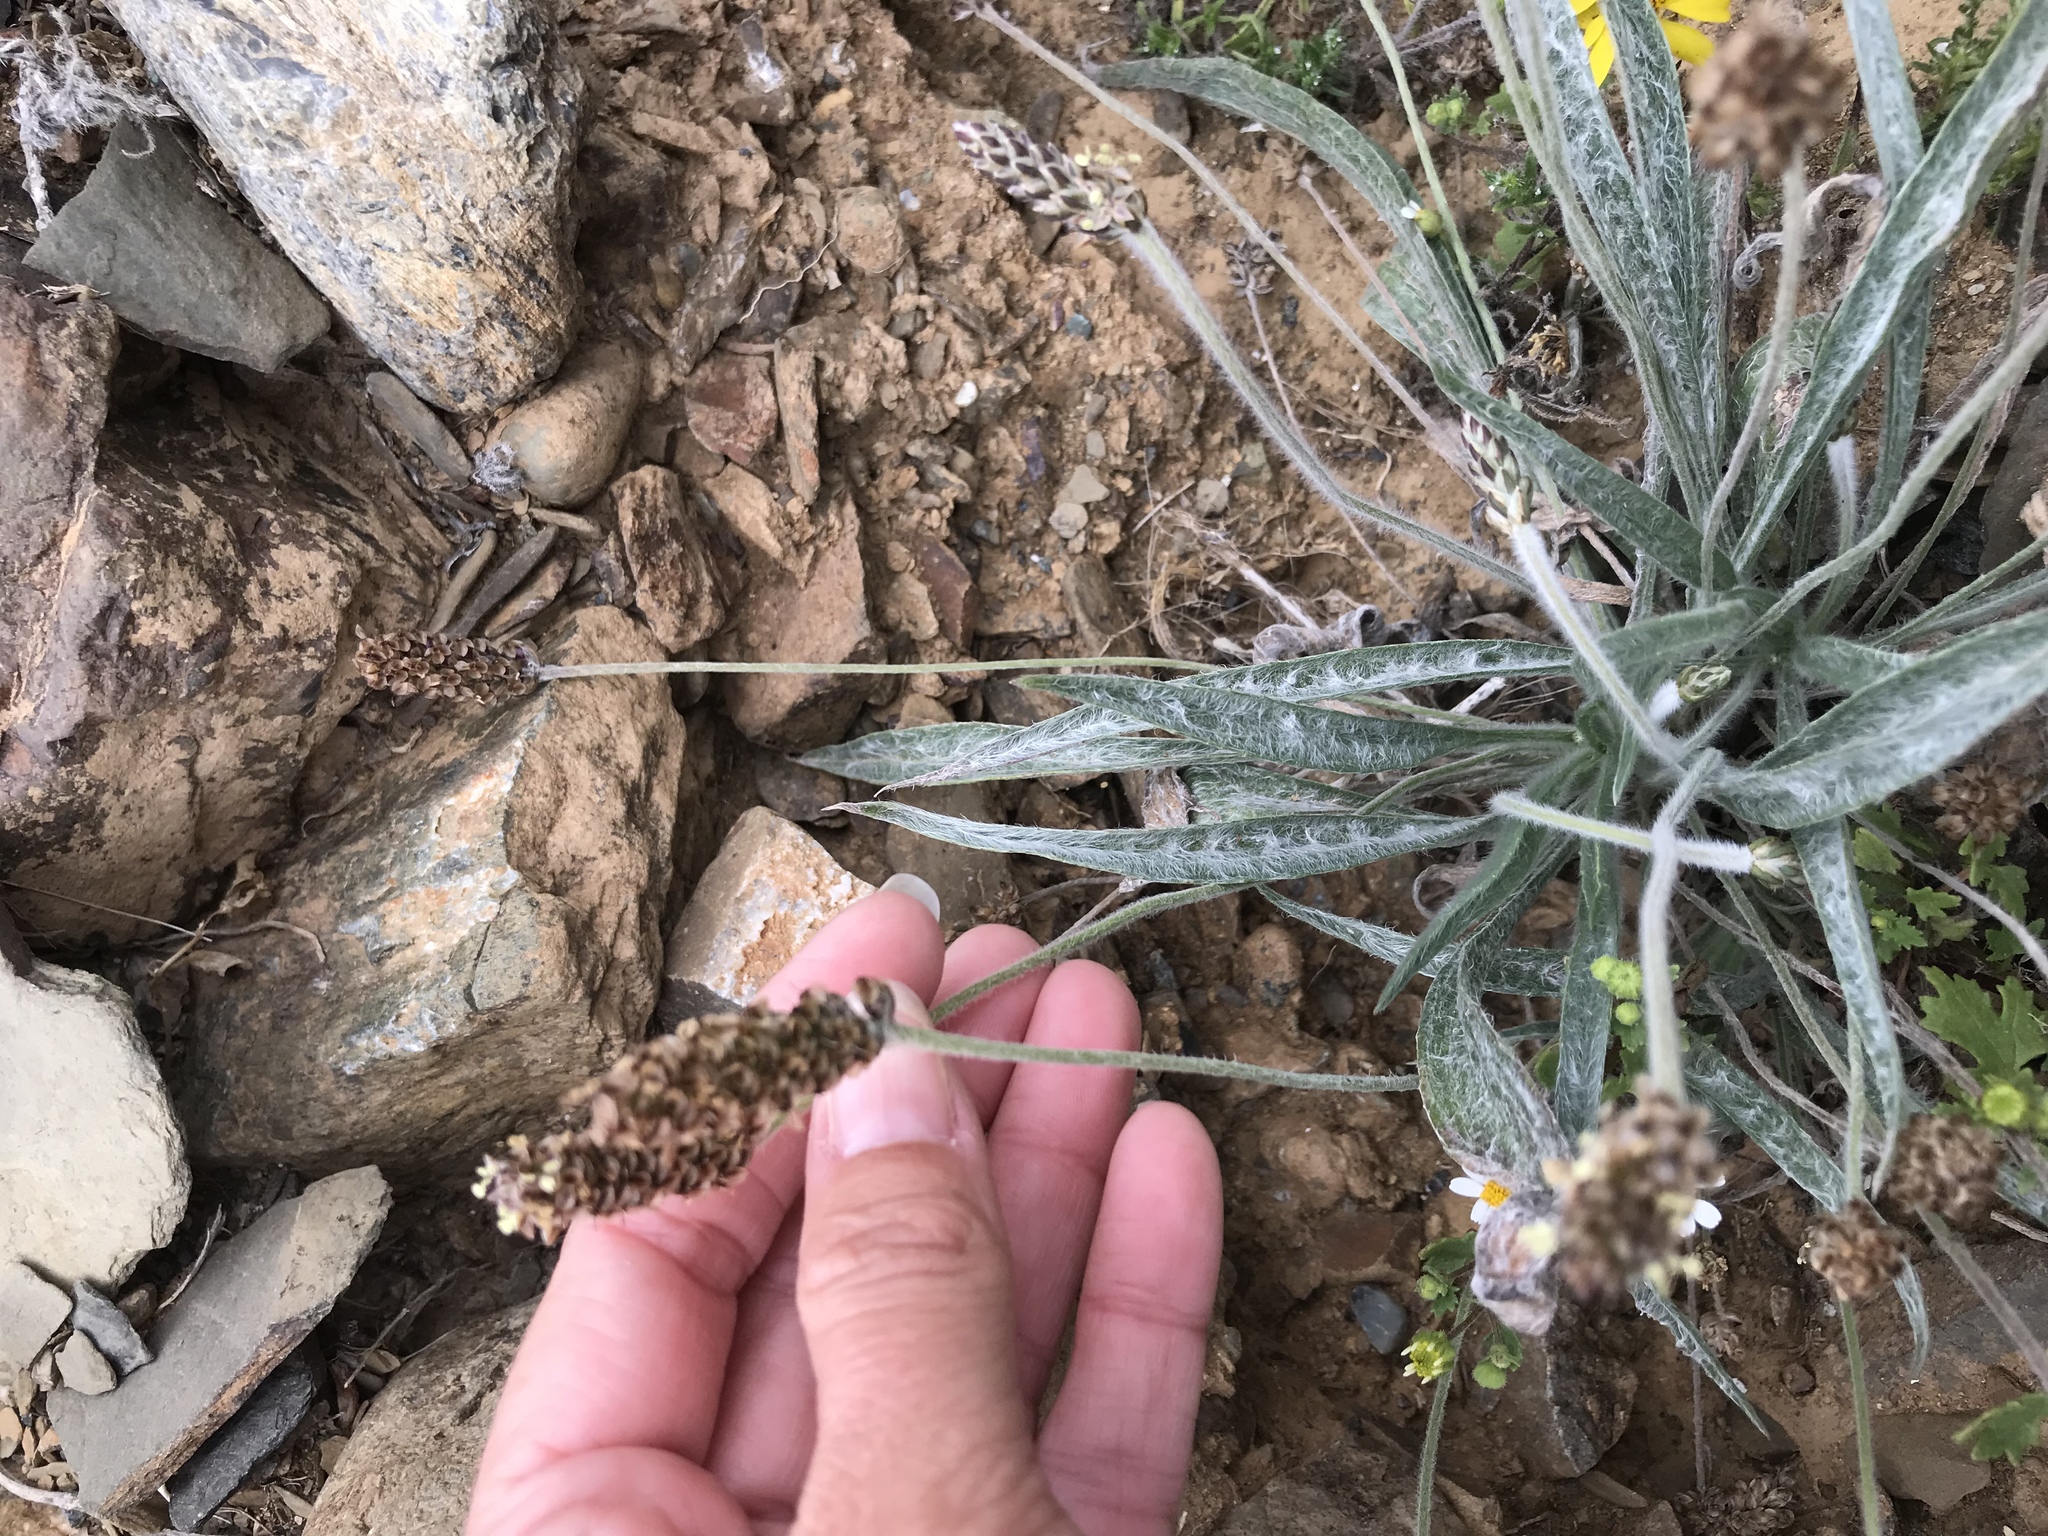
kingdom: Plantae
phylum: Tracheophyta
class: Magnoliopsida
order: Lamiales
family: Plantaginaceae
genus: Plantago
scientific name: Plantago ovata
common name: Blond plantain
